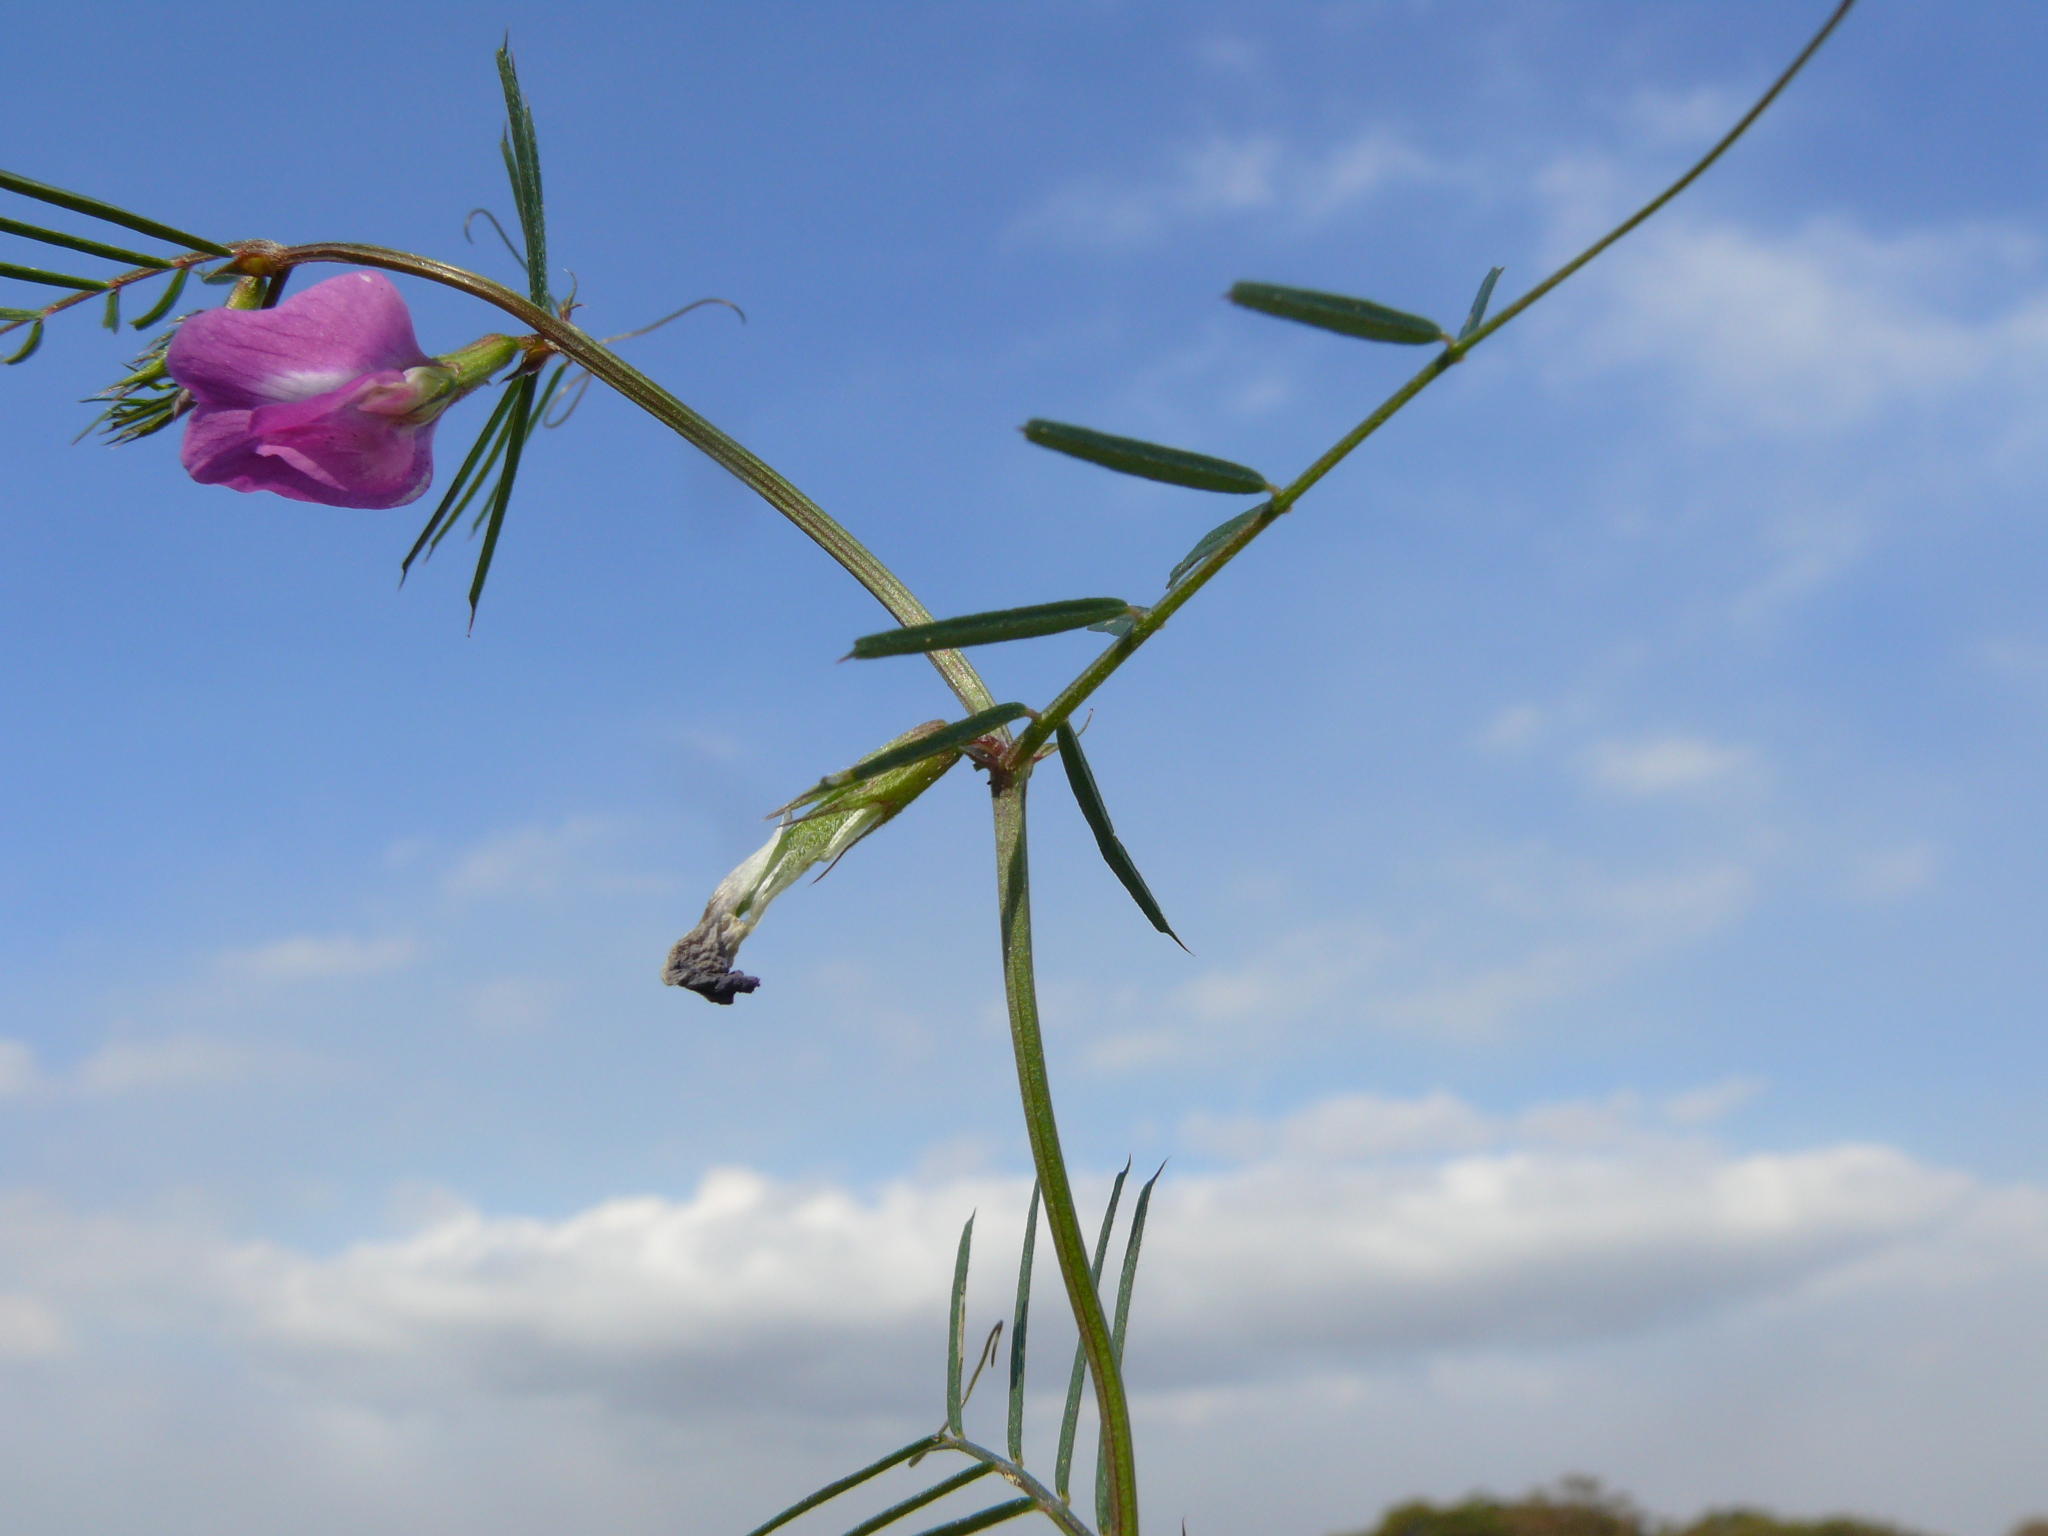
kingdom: Plantae
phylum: Tracheophyta
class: Magnoliopsida
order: Fabales
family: Fabaceae
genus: Vicia
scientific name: Vicia sativa
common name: Garden vetch
